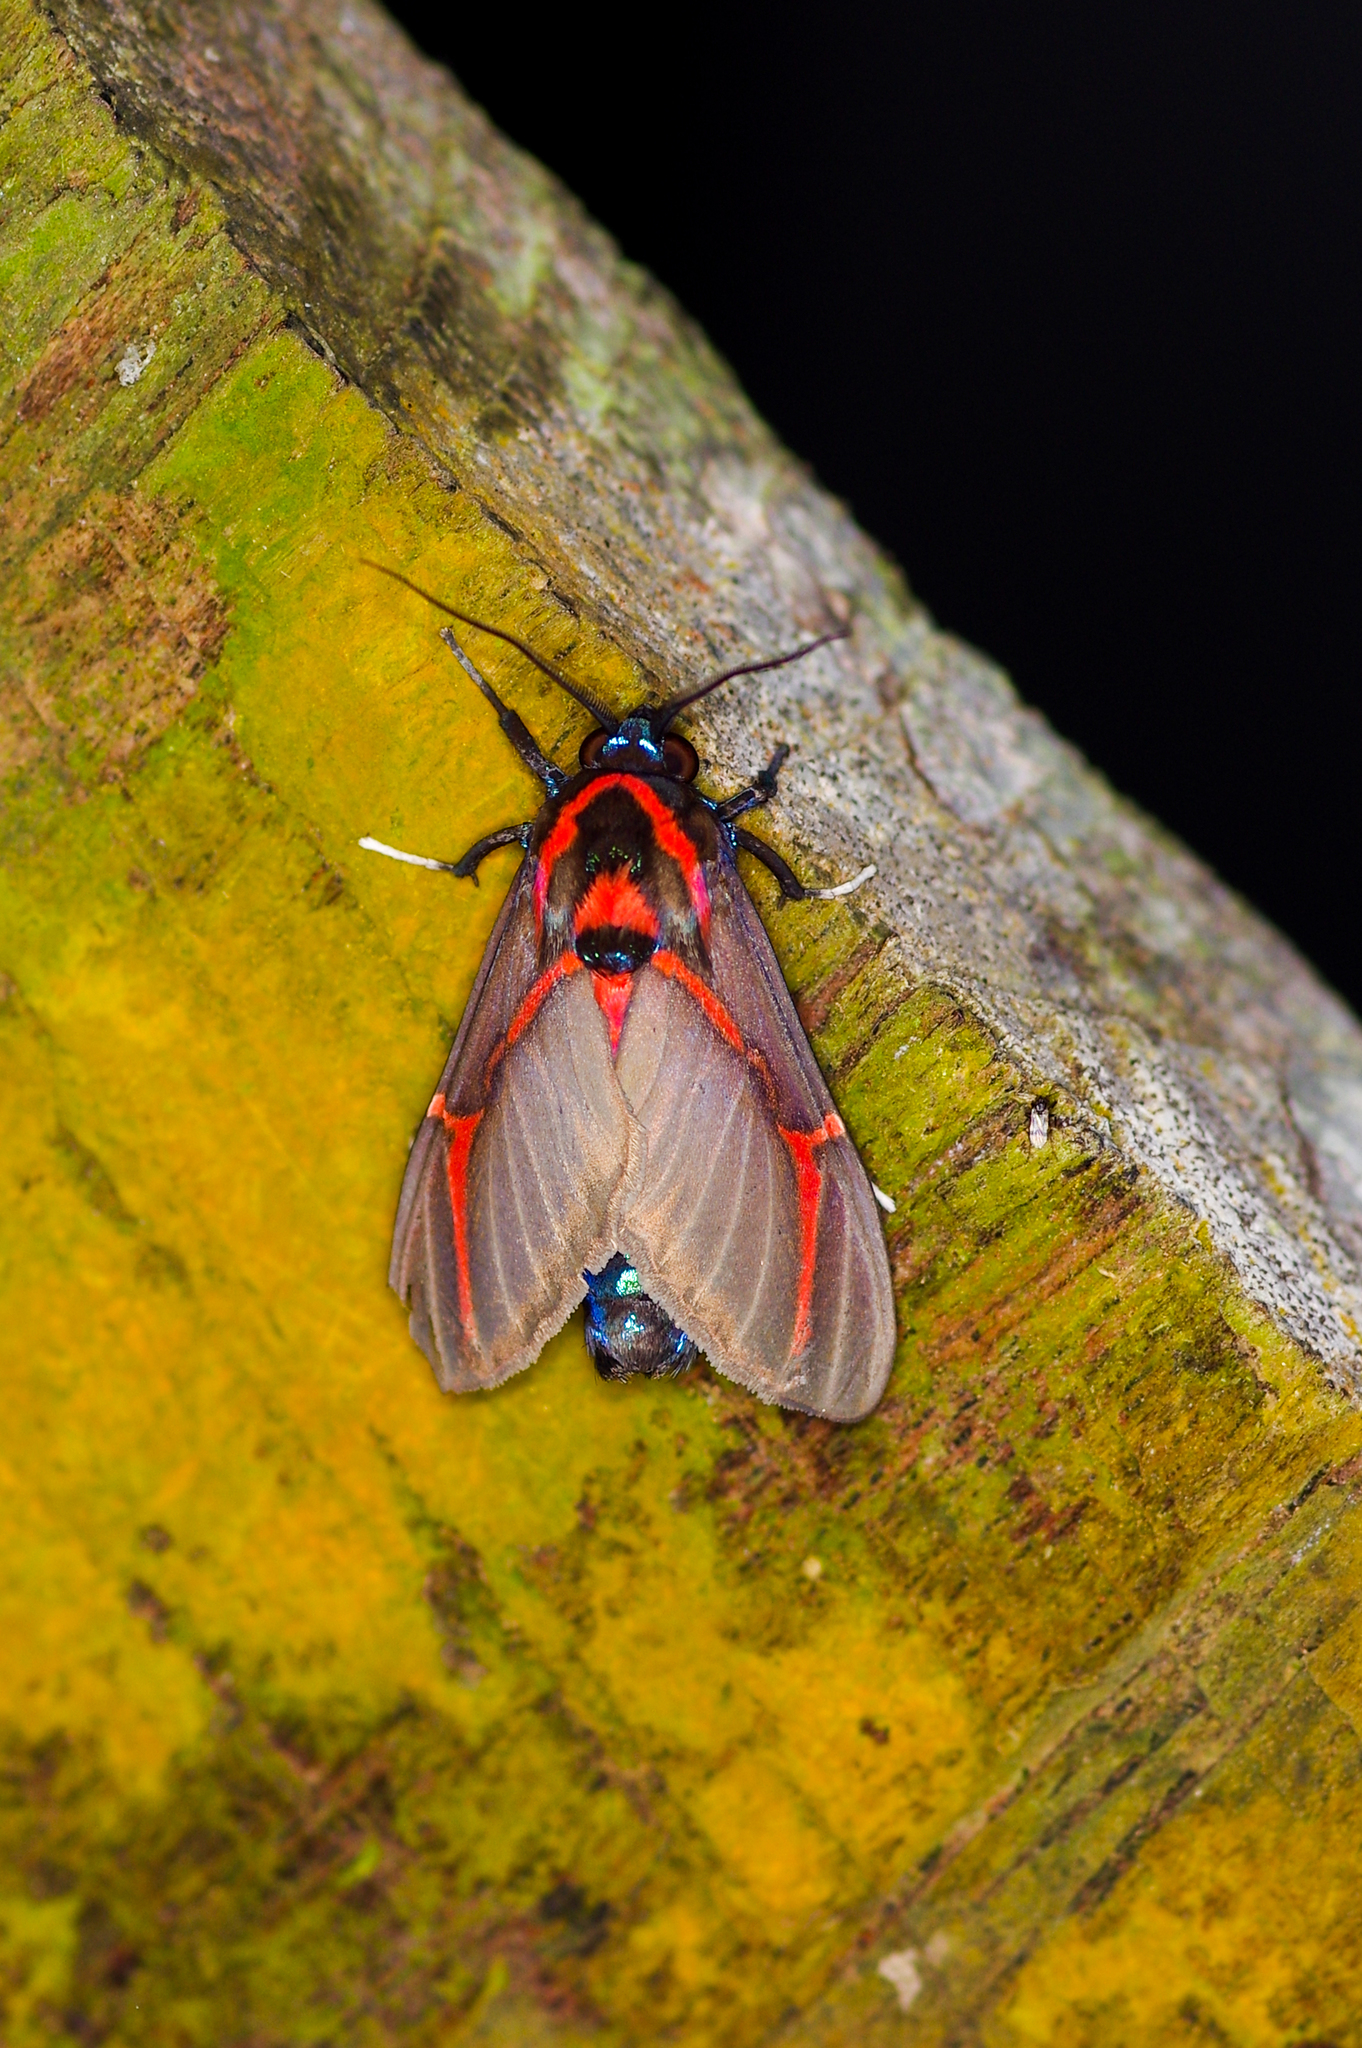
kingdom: Animalia
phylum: Arthropoda
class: Insecta
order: Lepidoptera
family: Erebidae
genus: Himerarctia
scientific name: Himerarctia docis
